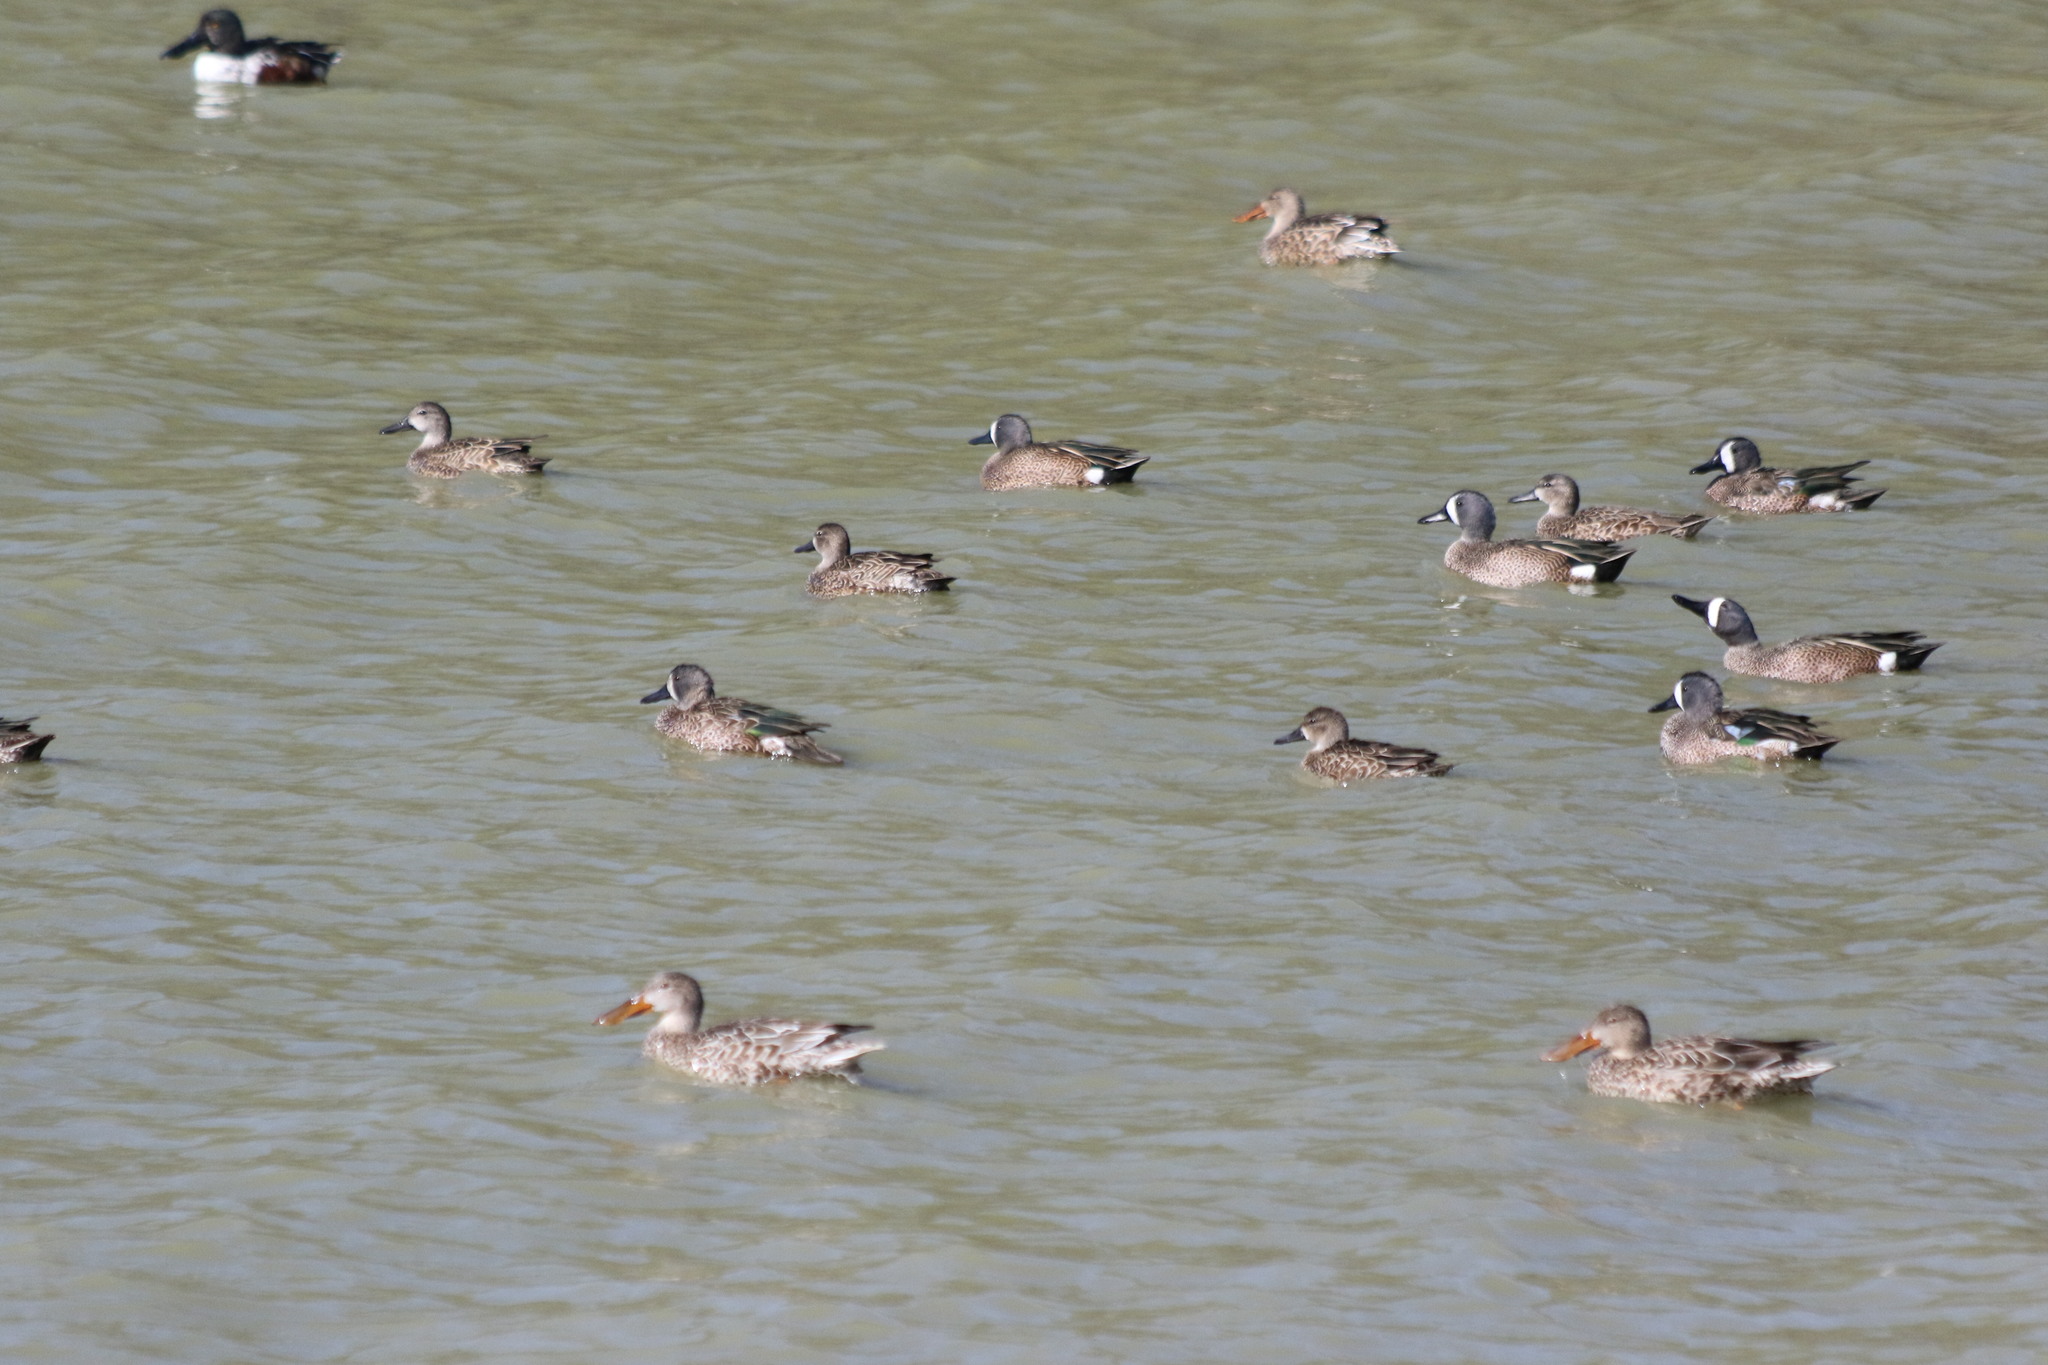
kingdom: Animalia
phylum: Chordata
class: Aves
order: Anseriformes
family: Anatidae
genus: Spatula
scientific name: Spatula discors
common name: Blue-winged teal
